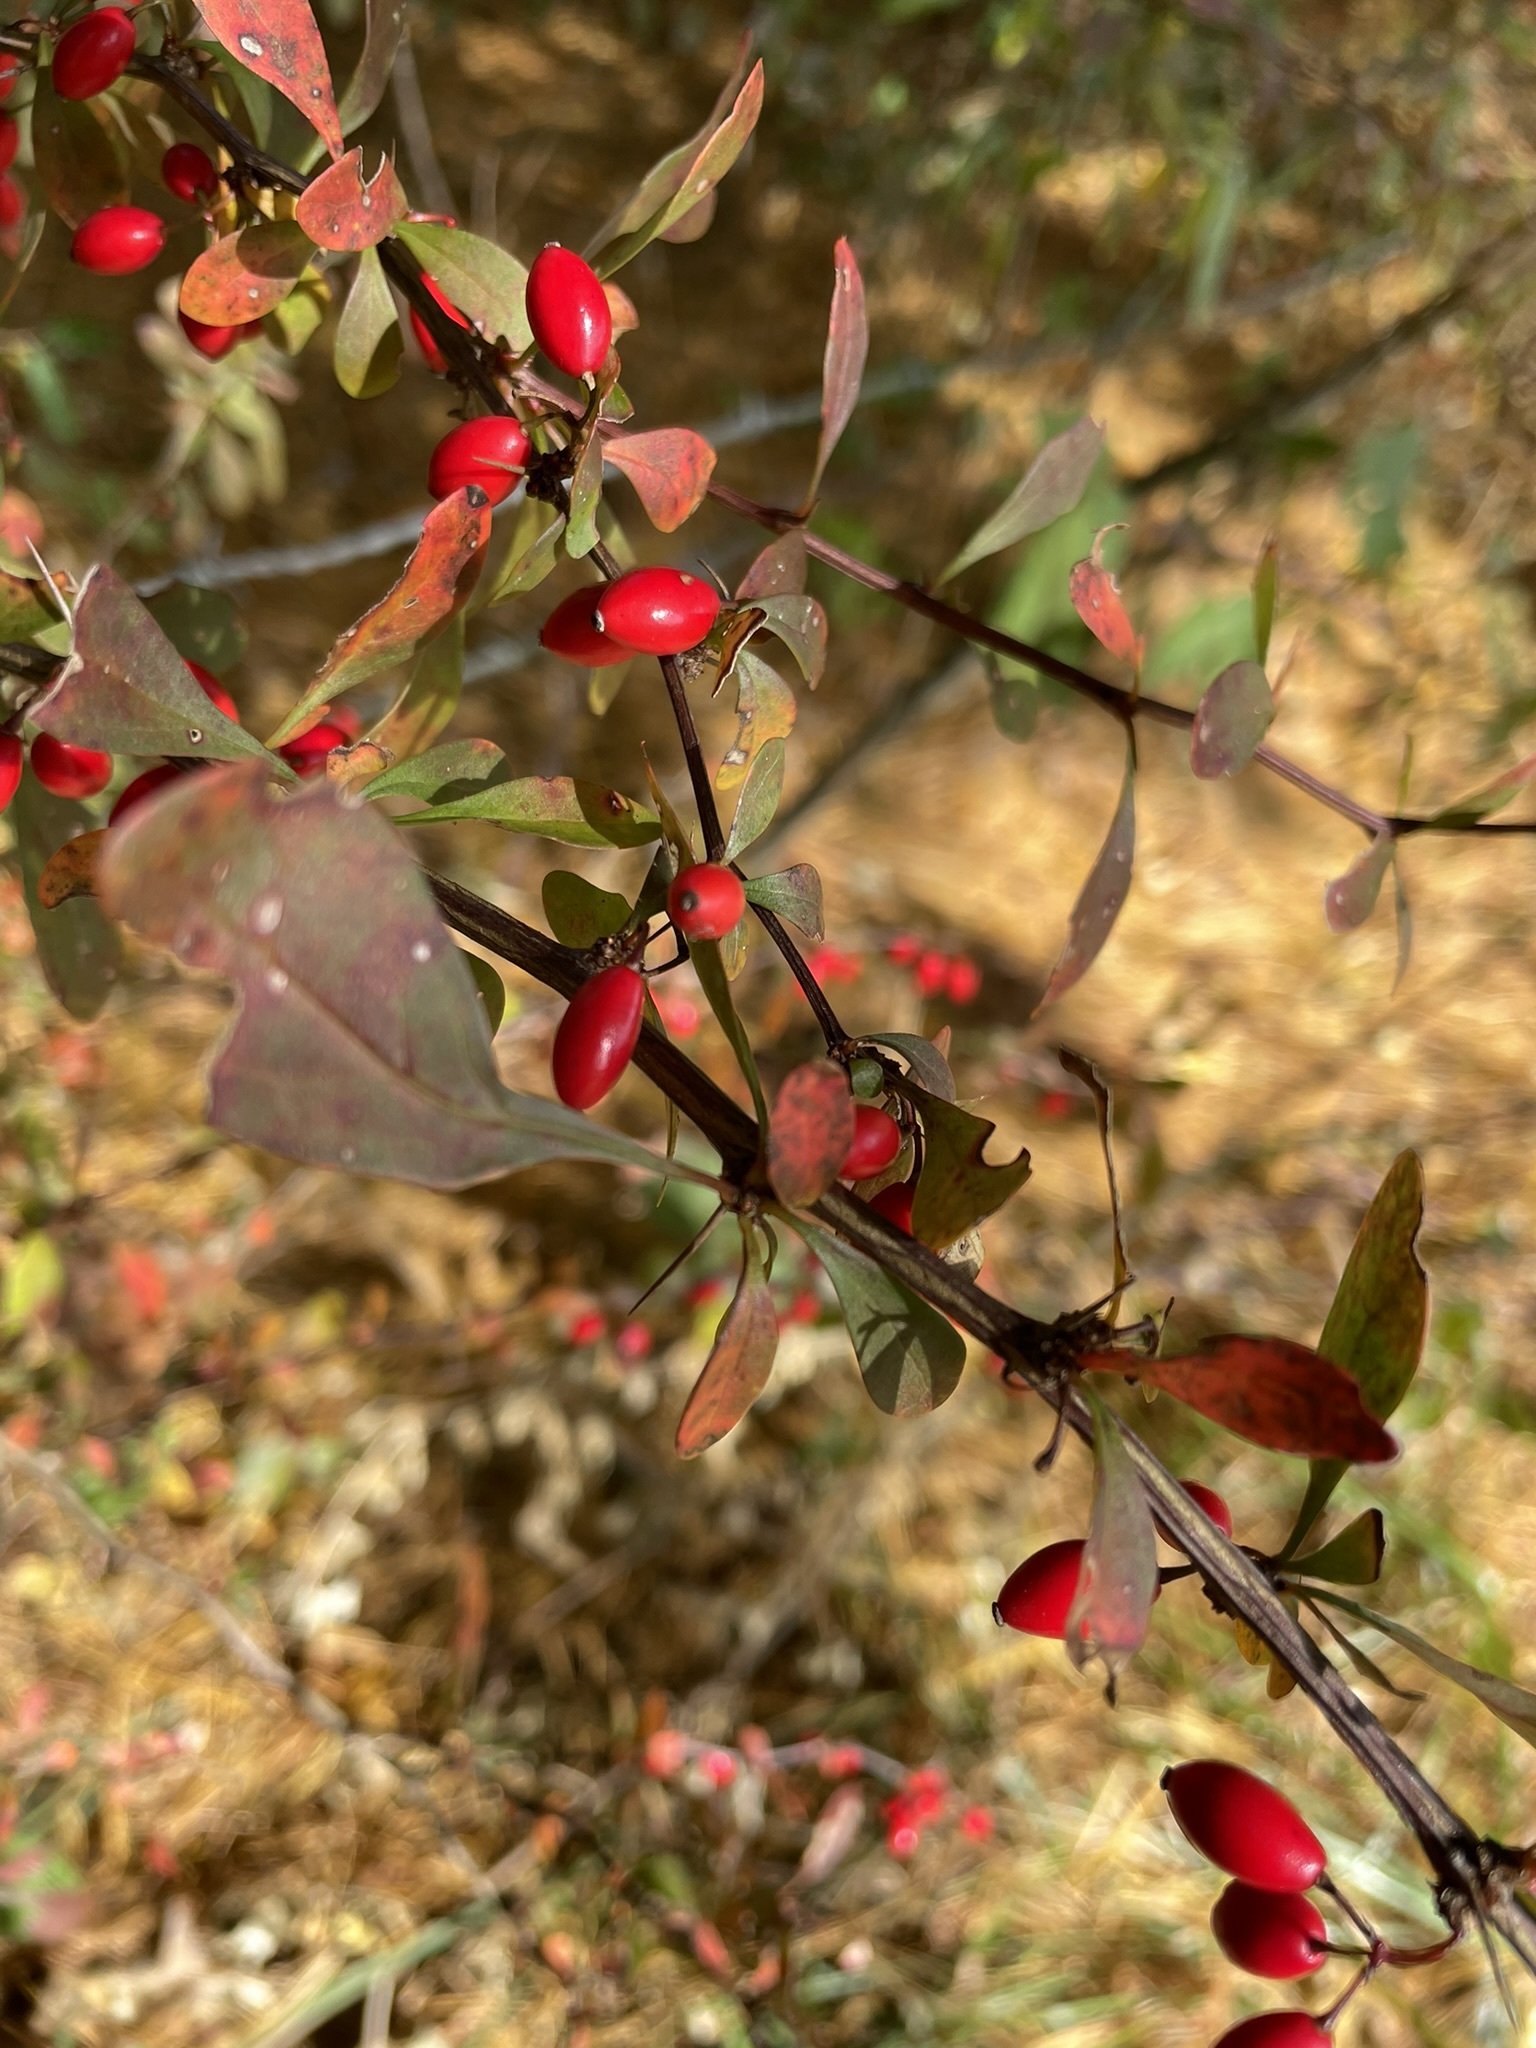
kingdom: Plantae
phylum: Tracheophyta
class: Magnoliopsida
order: Ranunculales
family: Berberidaceae
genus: Berberis
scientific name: Berberis thunbergii
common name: Japanese barberry
